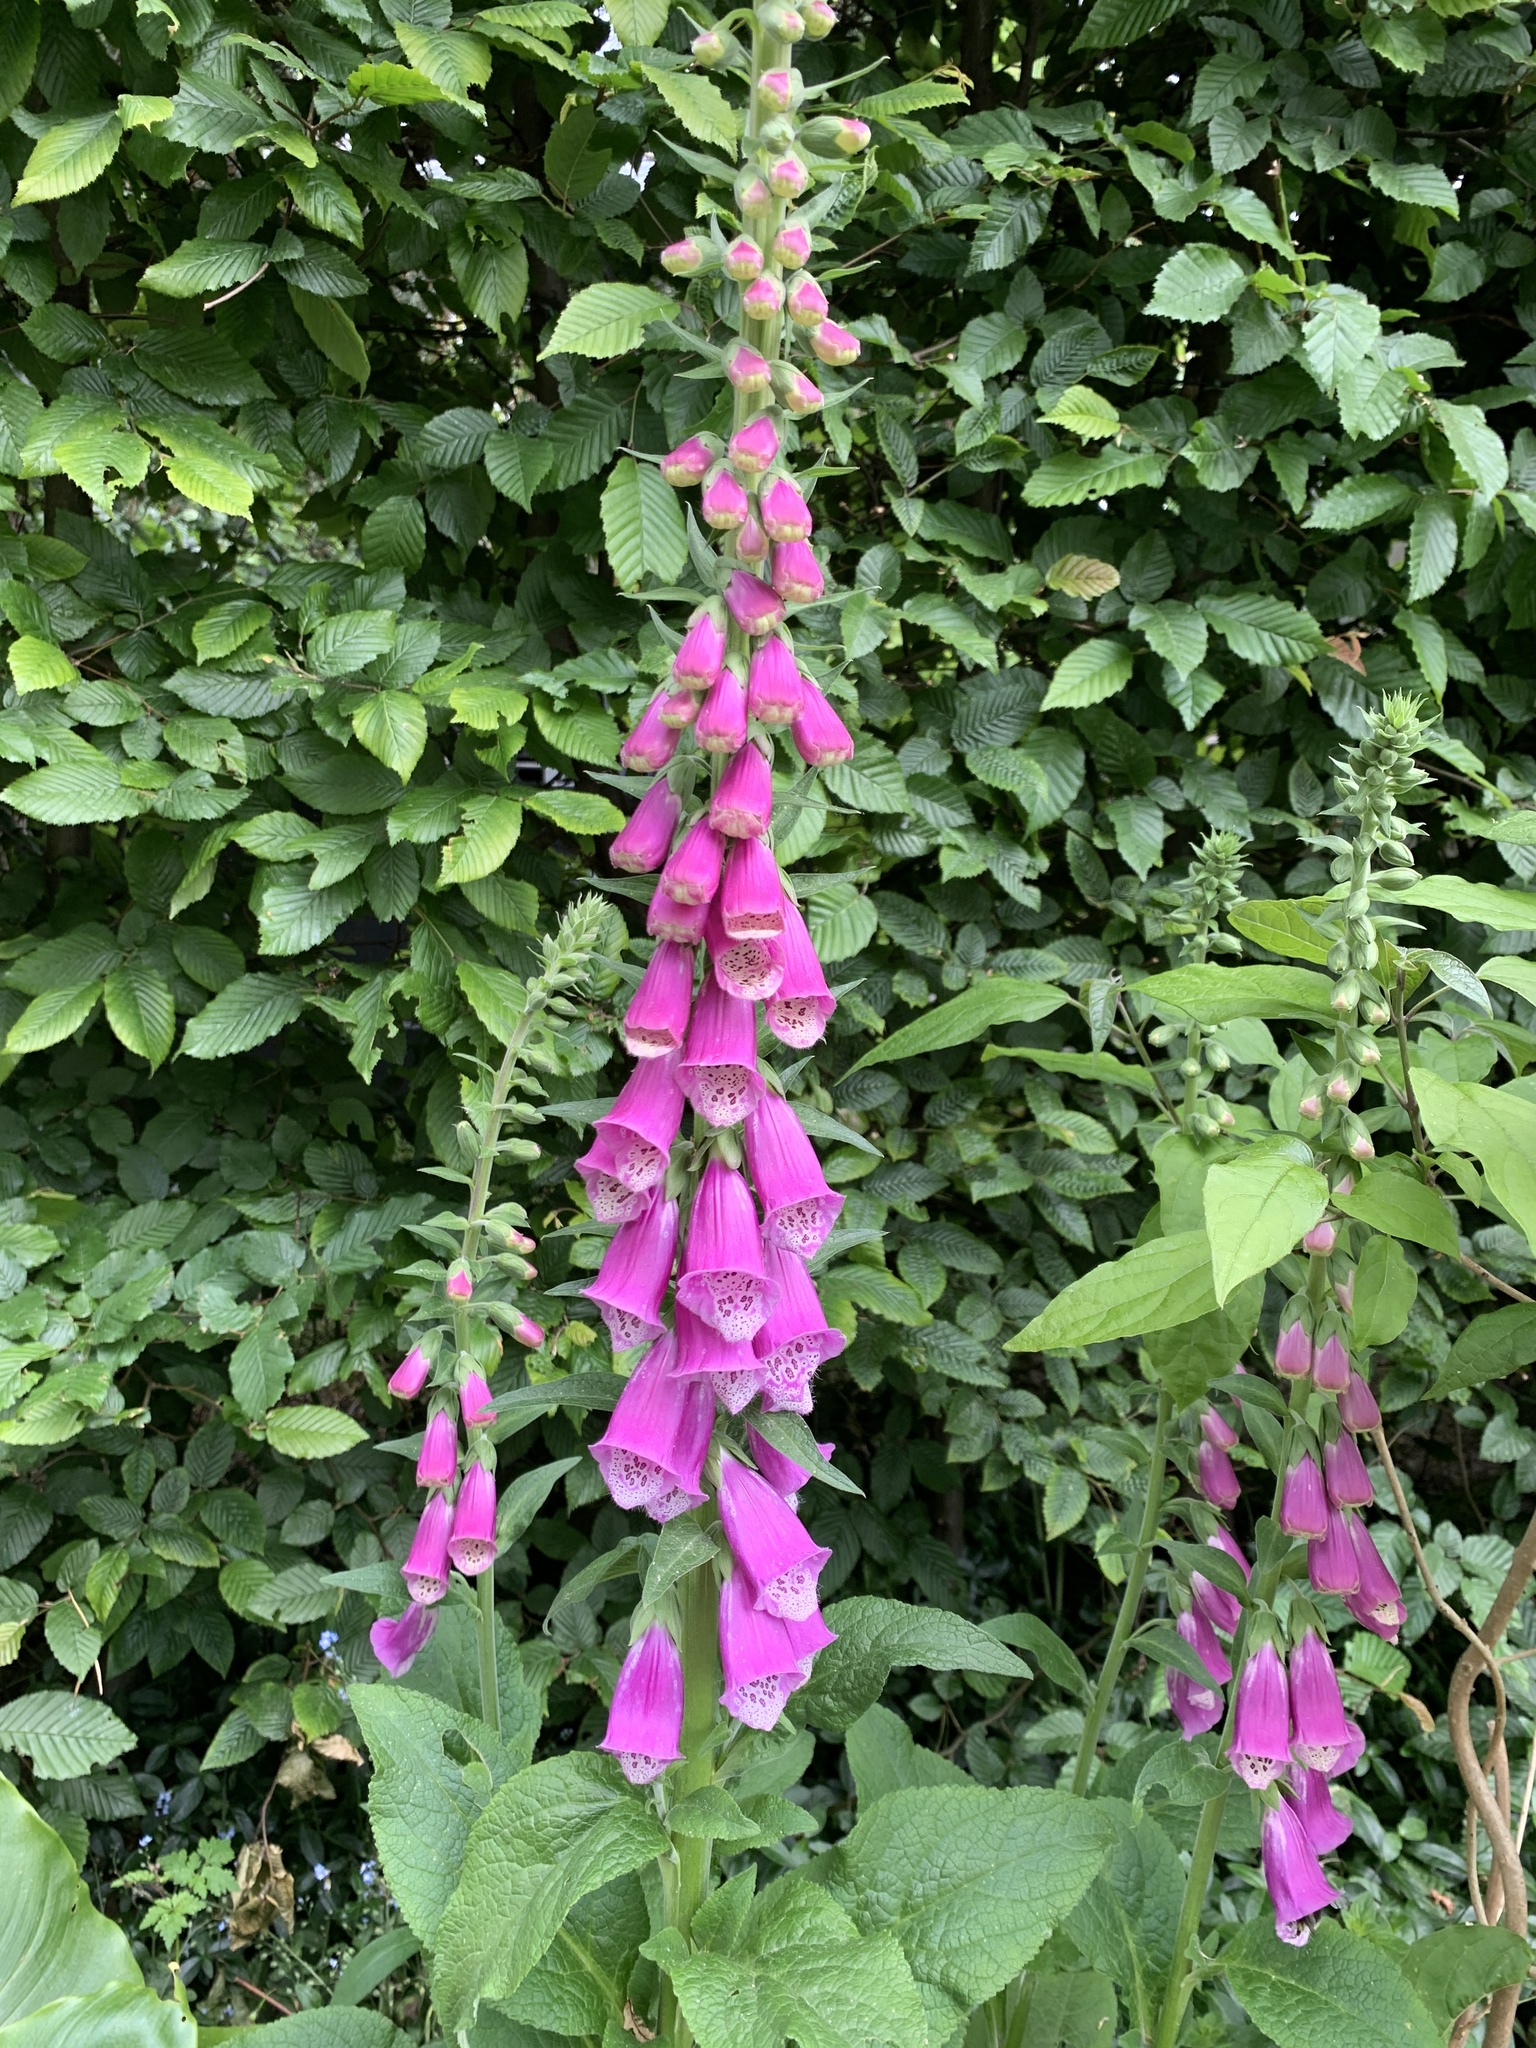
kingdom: Plantae
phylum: Tracheophyta
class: Magnoliopsida
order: Lamiales
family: Plantaginaceae
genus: Digitalis
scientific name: Digitalis purpurea
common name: Foxglove
